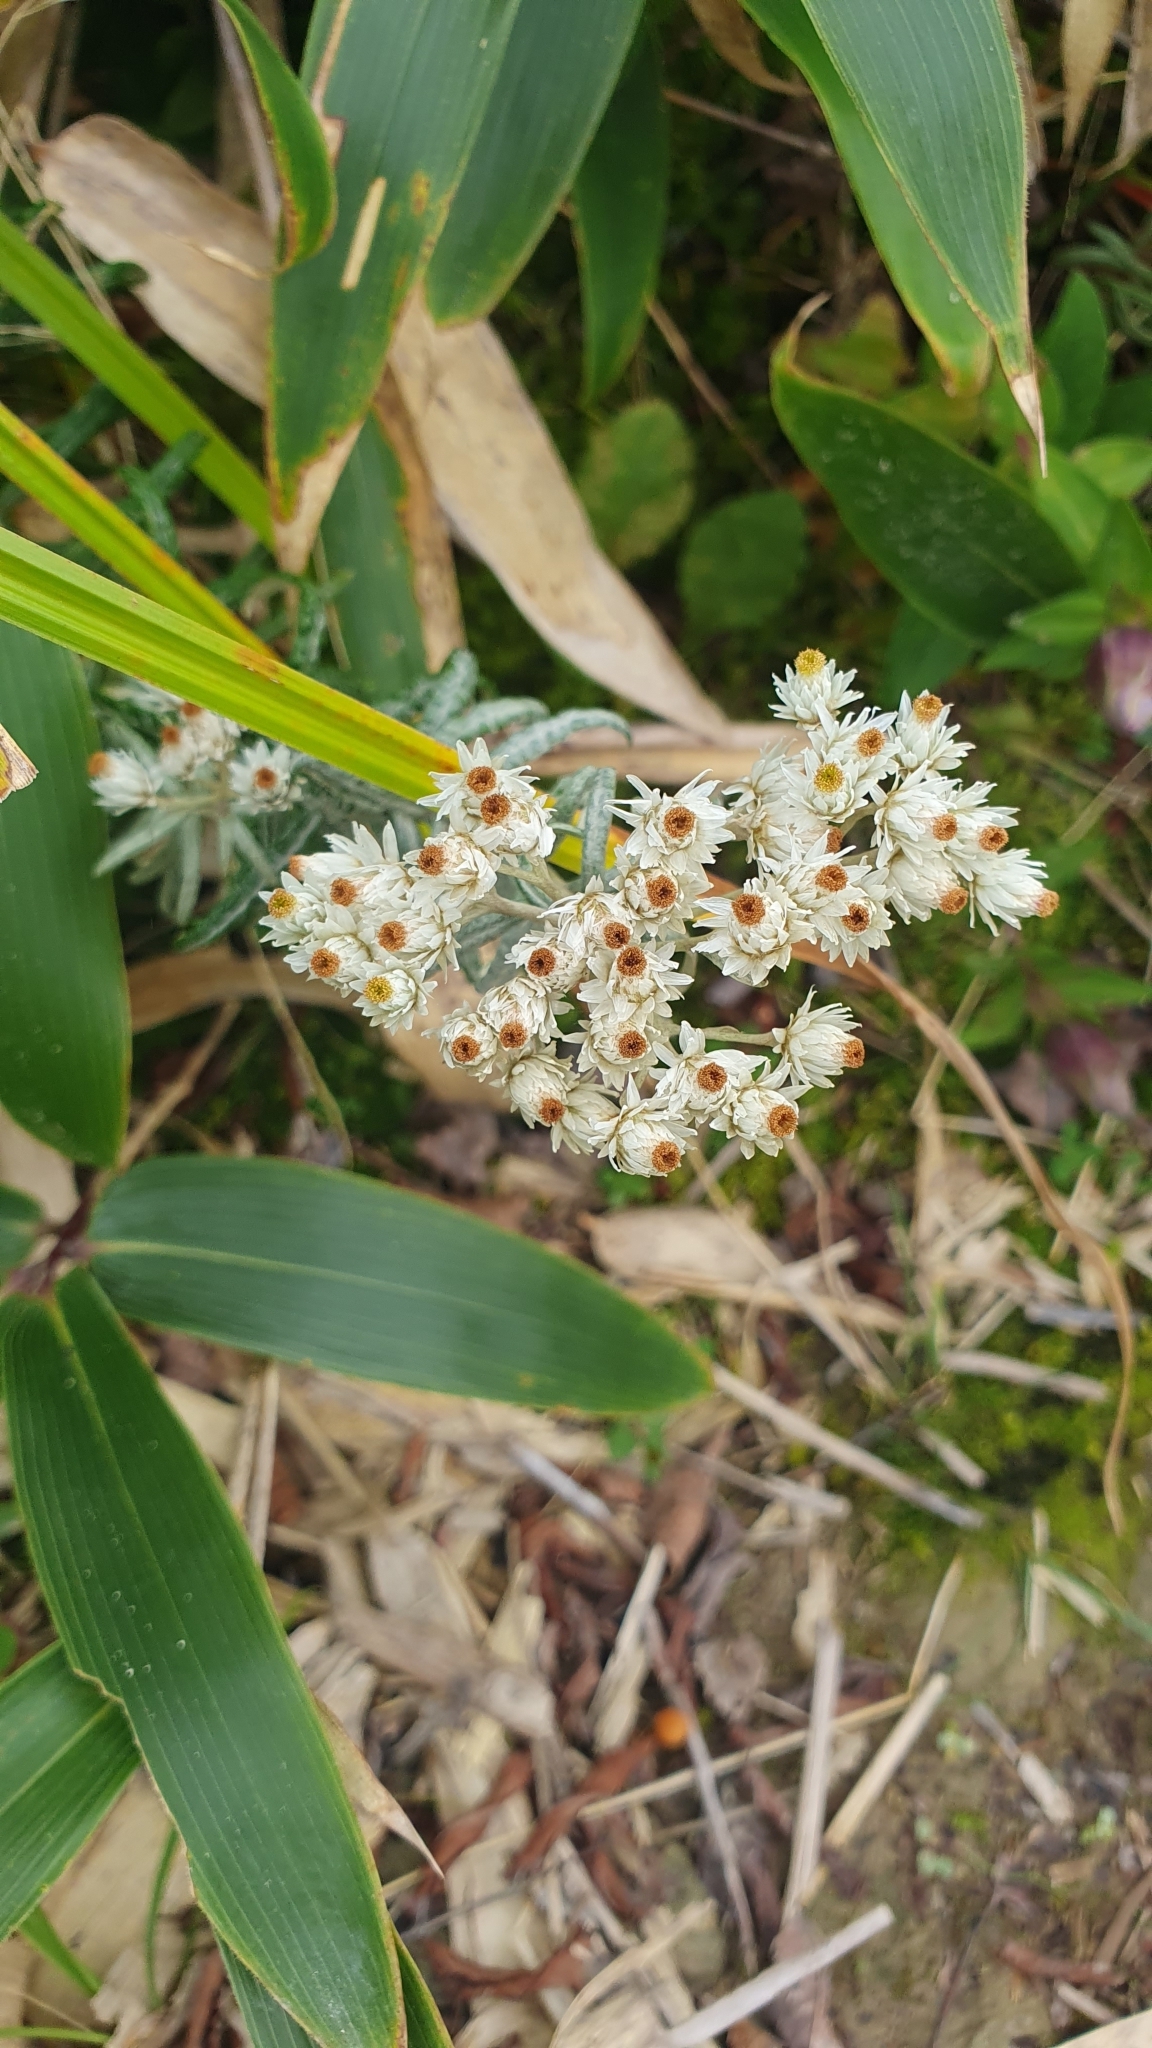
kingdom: Plantae
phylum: Tracheophyta
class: Magnoliopsida
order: Asterales
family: Asteraceae
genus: Anaphalis
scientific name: Anaphalis margaritacea
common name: Pearly everlasting
